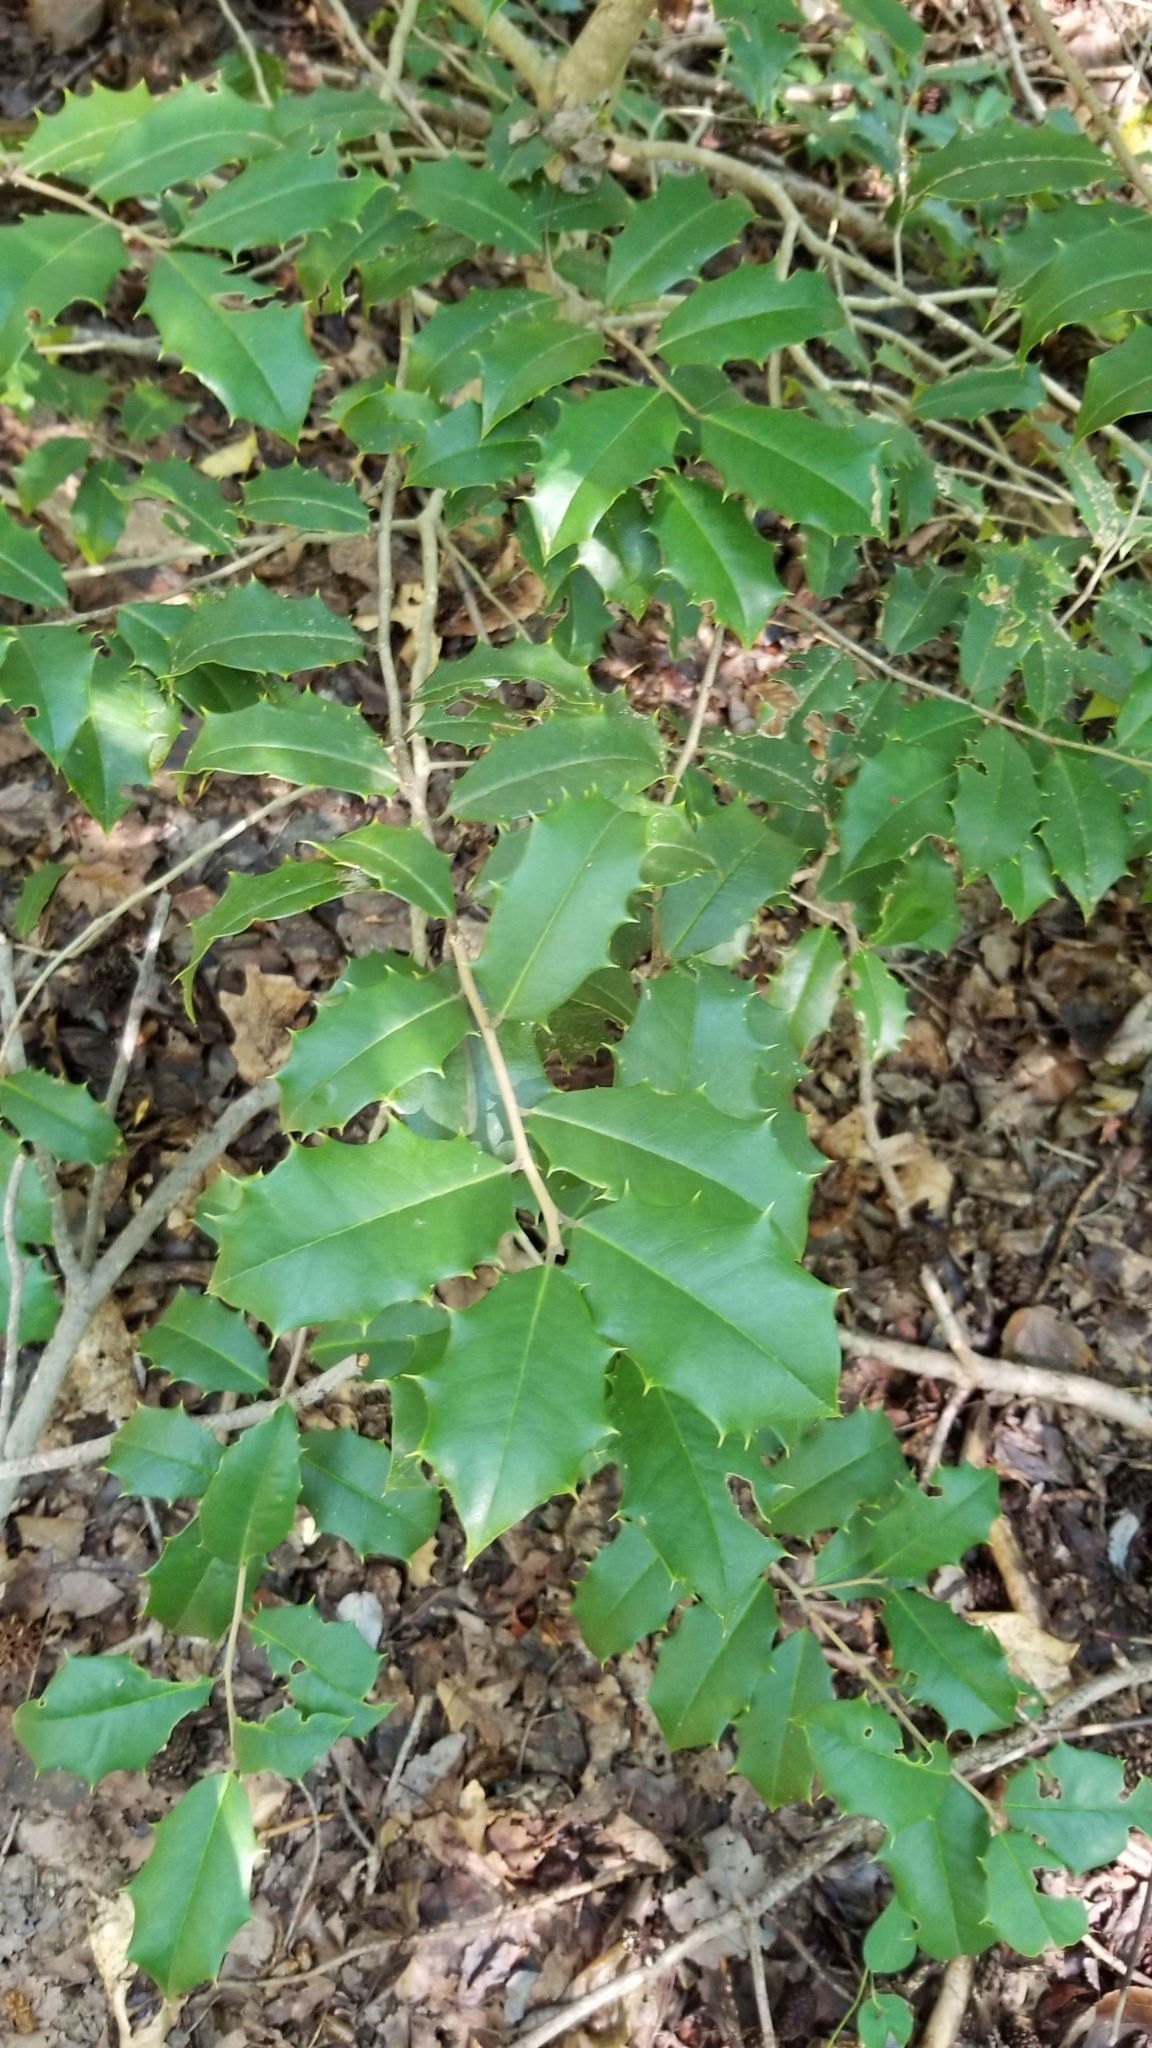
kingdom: Plantae
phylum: Tracheophyta
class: Magnoliopsida
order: Aquifoliales
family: Aquifoliaceae
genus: Ilex
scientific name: Ilex opaca
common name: American holly
